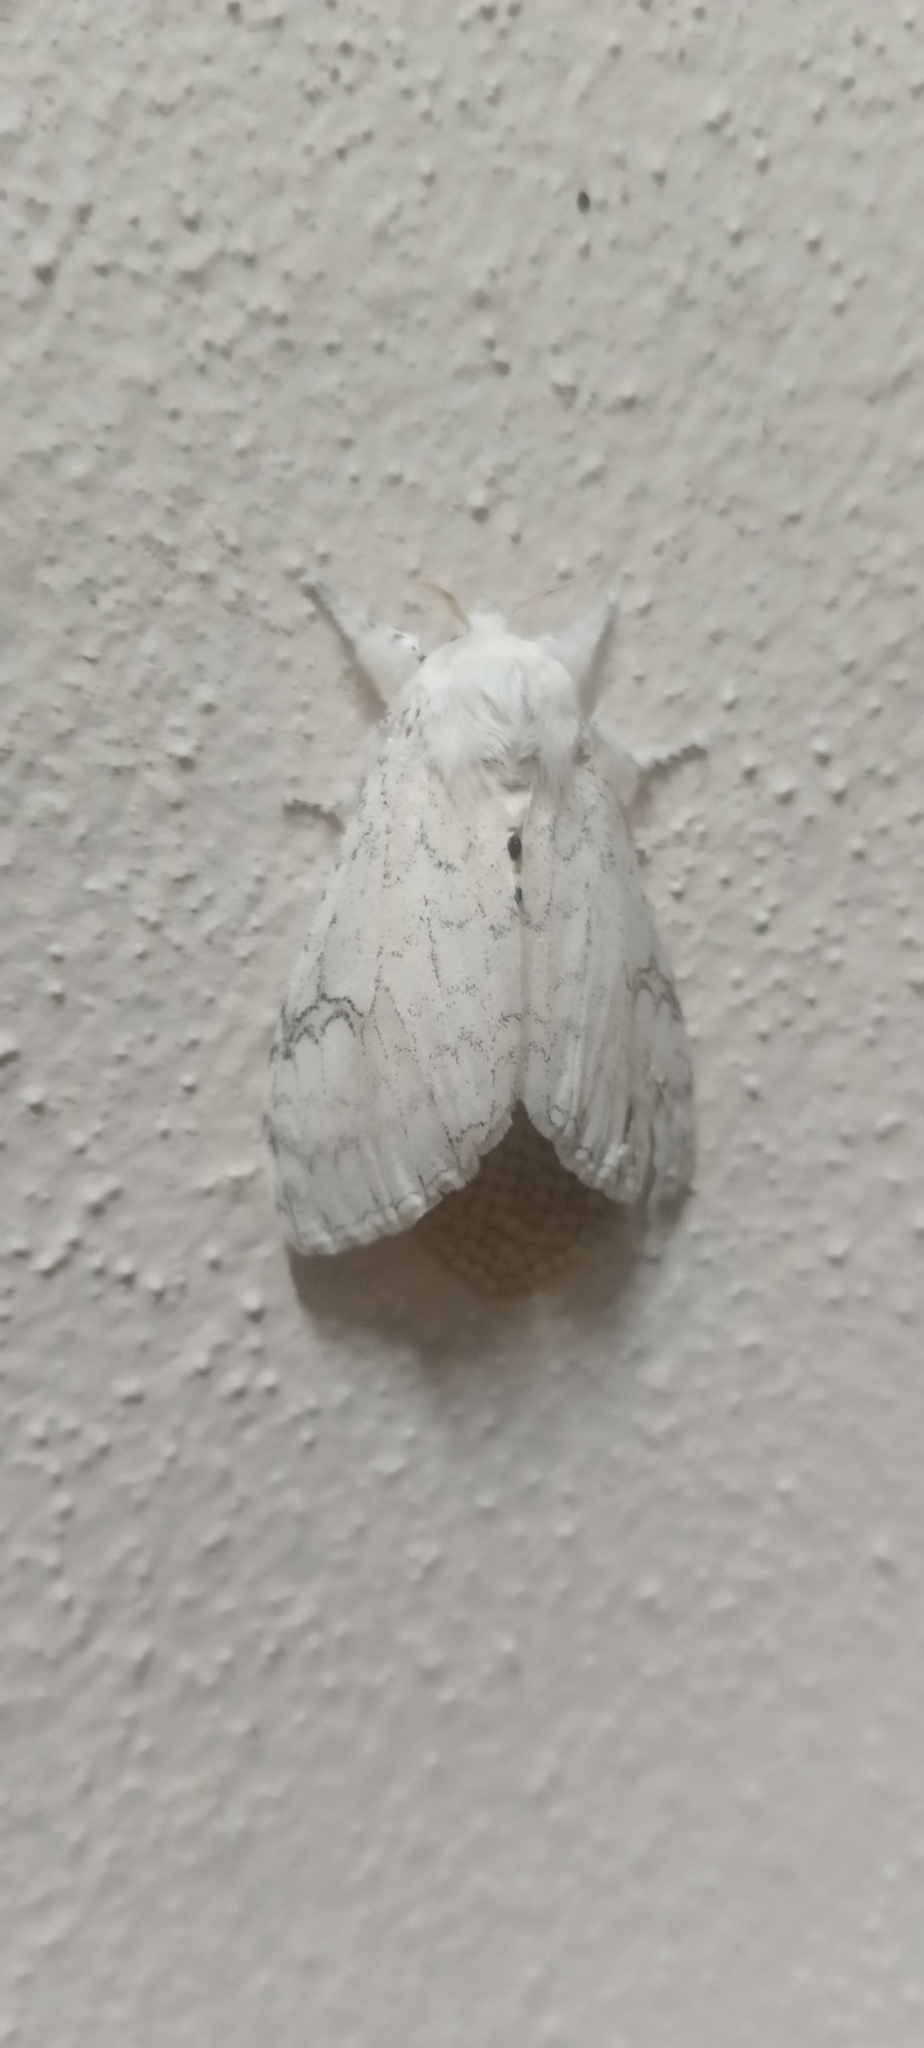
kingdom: Animalia
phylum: Arthropoda
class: Insecta
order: Lepidoptera
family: Erebidae
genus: Dasychira
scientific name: Dasychira georgiana
